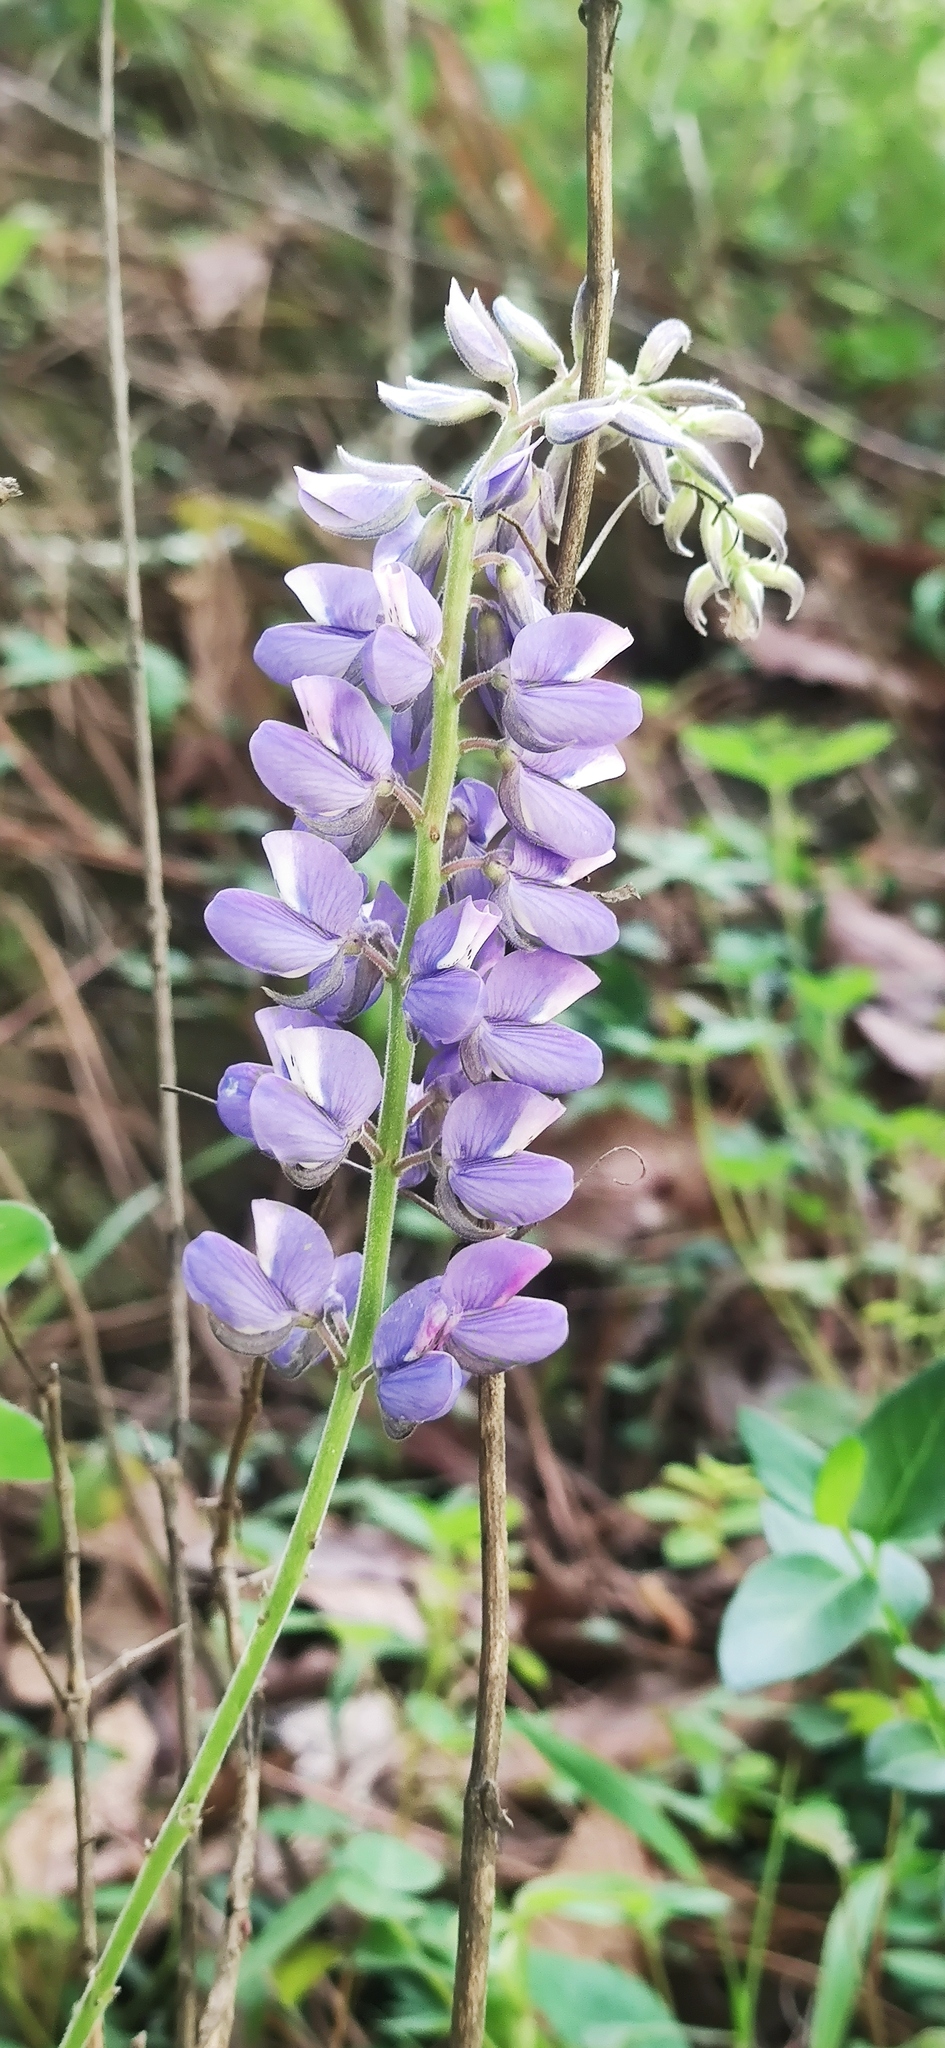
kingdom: Plantae
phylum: Tracheophyta
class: Magnoliopsida
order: Fabales
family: Fabaceae
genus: Lupinus
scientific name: Lupinus caballoanus
